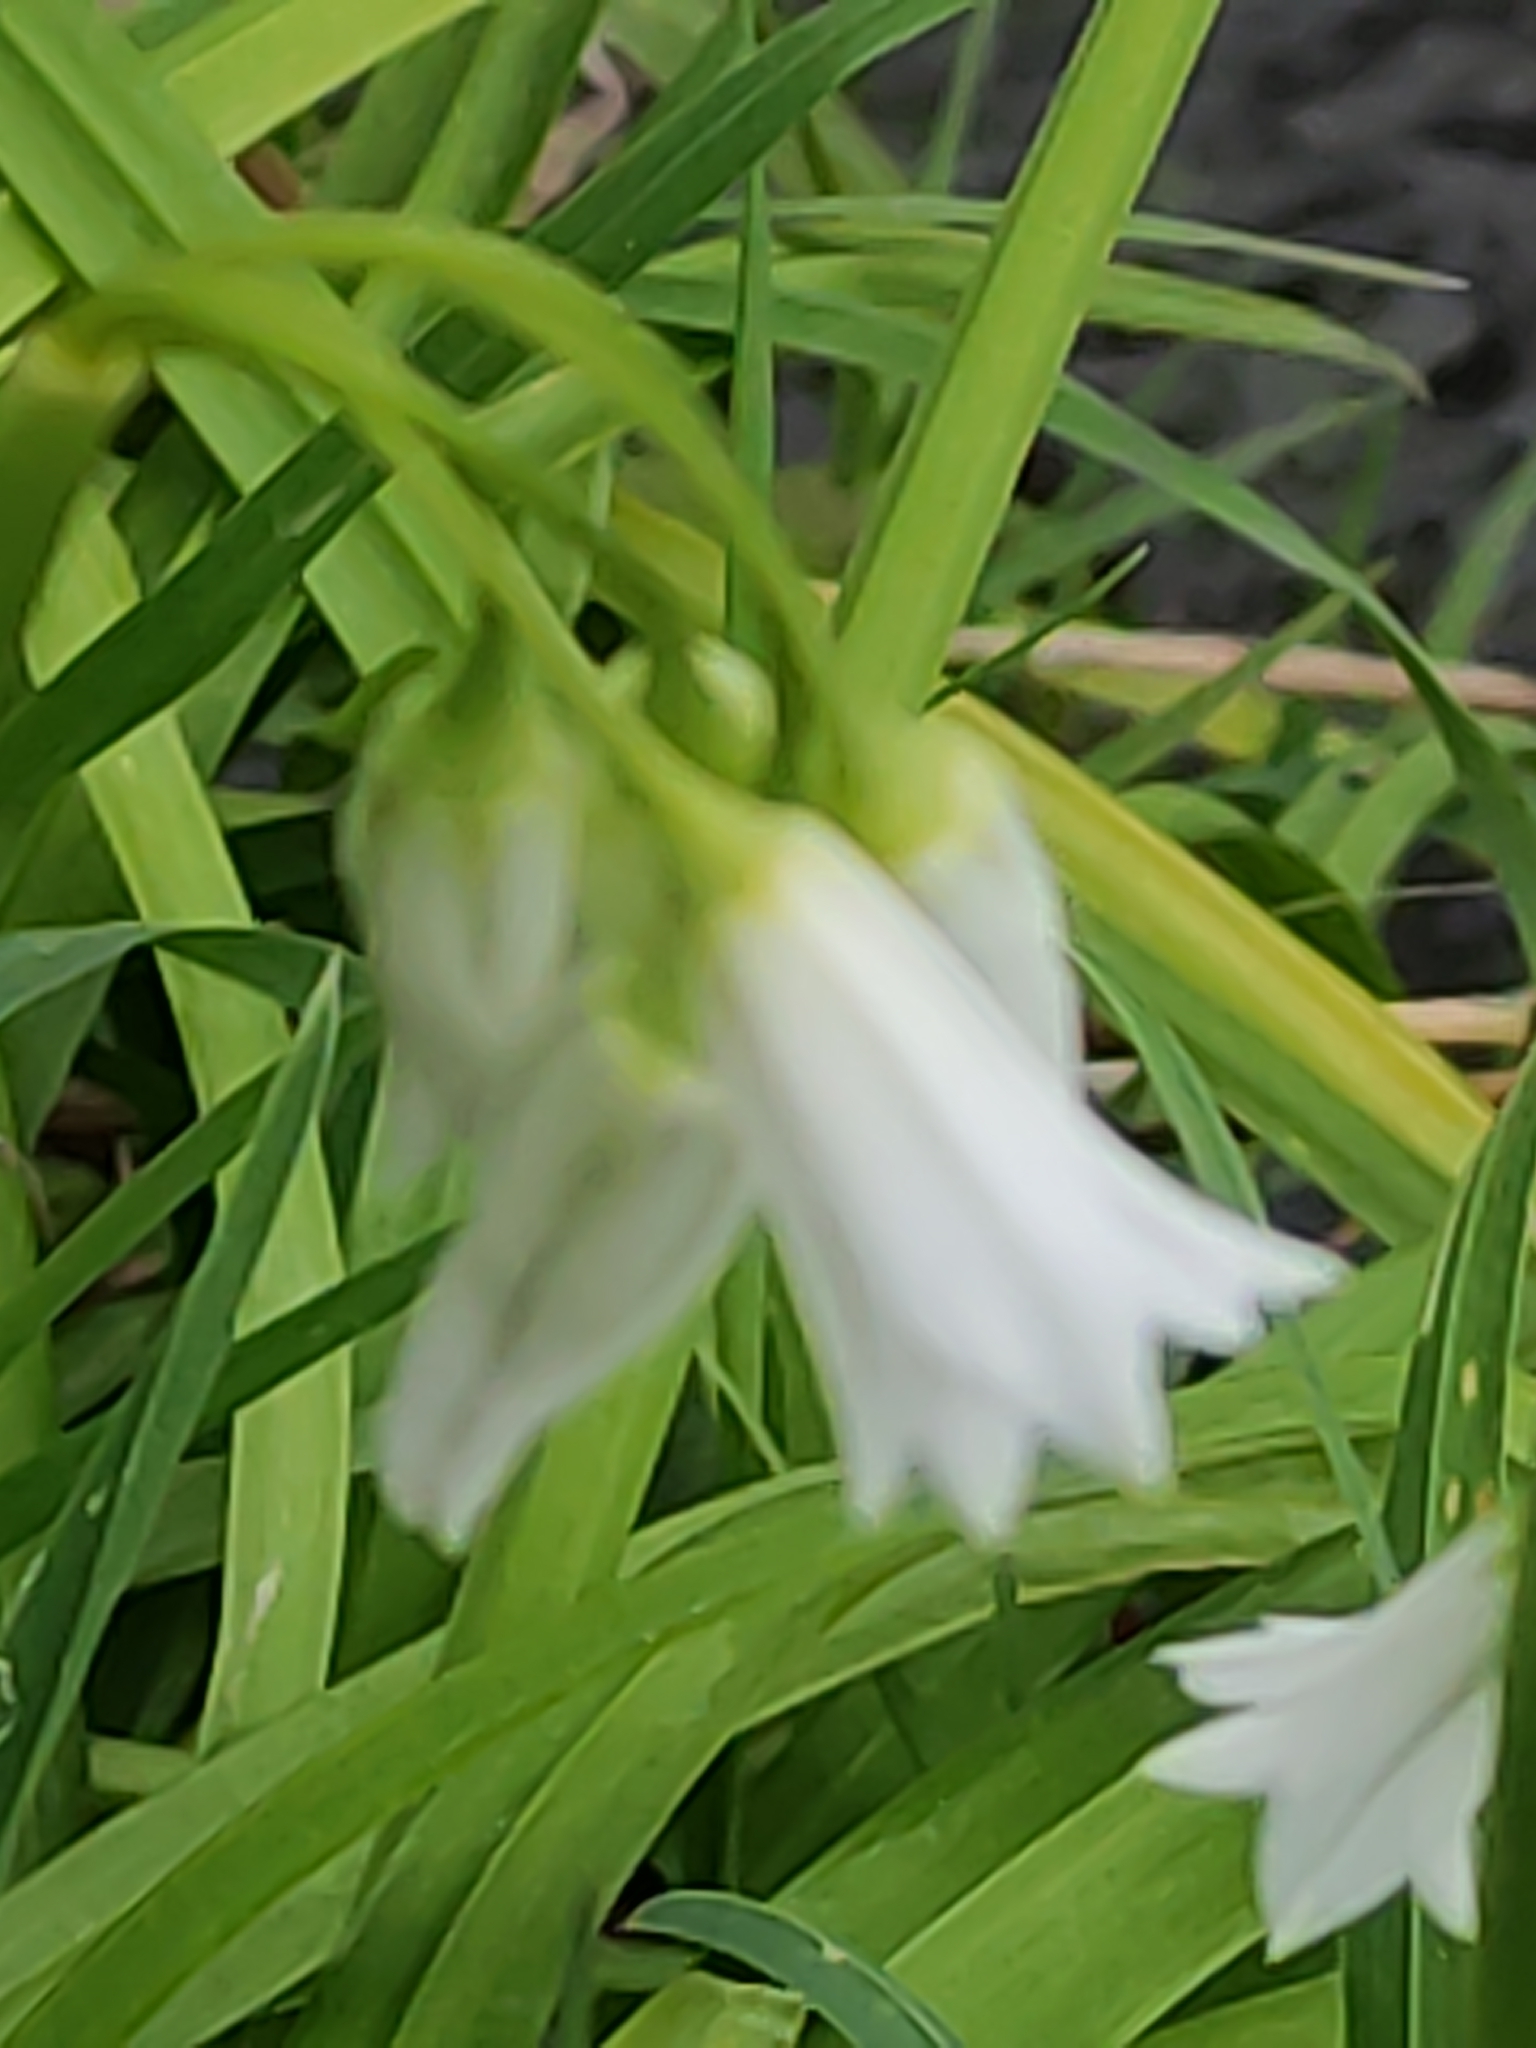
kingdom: Plantae
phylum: Tracheophyta
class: Liliopsida
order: Asparagales
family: Amaryllidaceae
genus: Allium
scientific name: Allium triquetrum
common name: Three-cornered garlic
